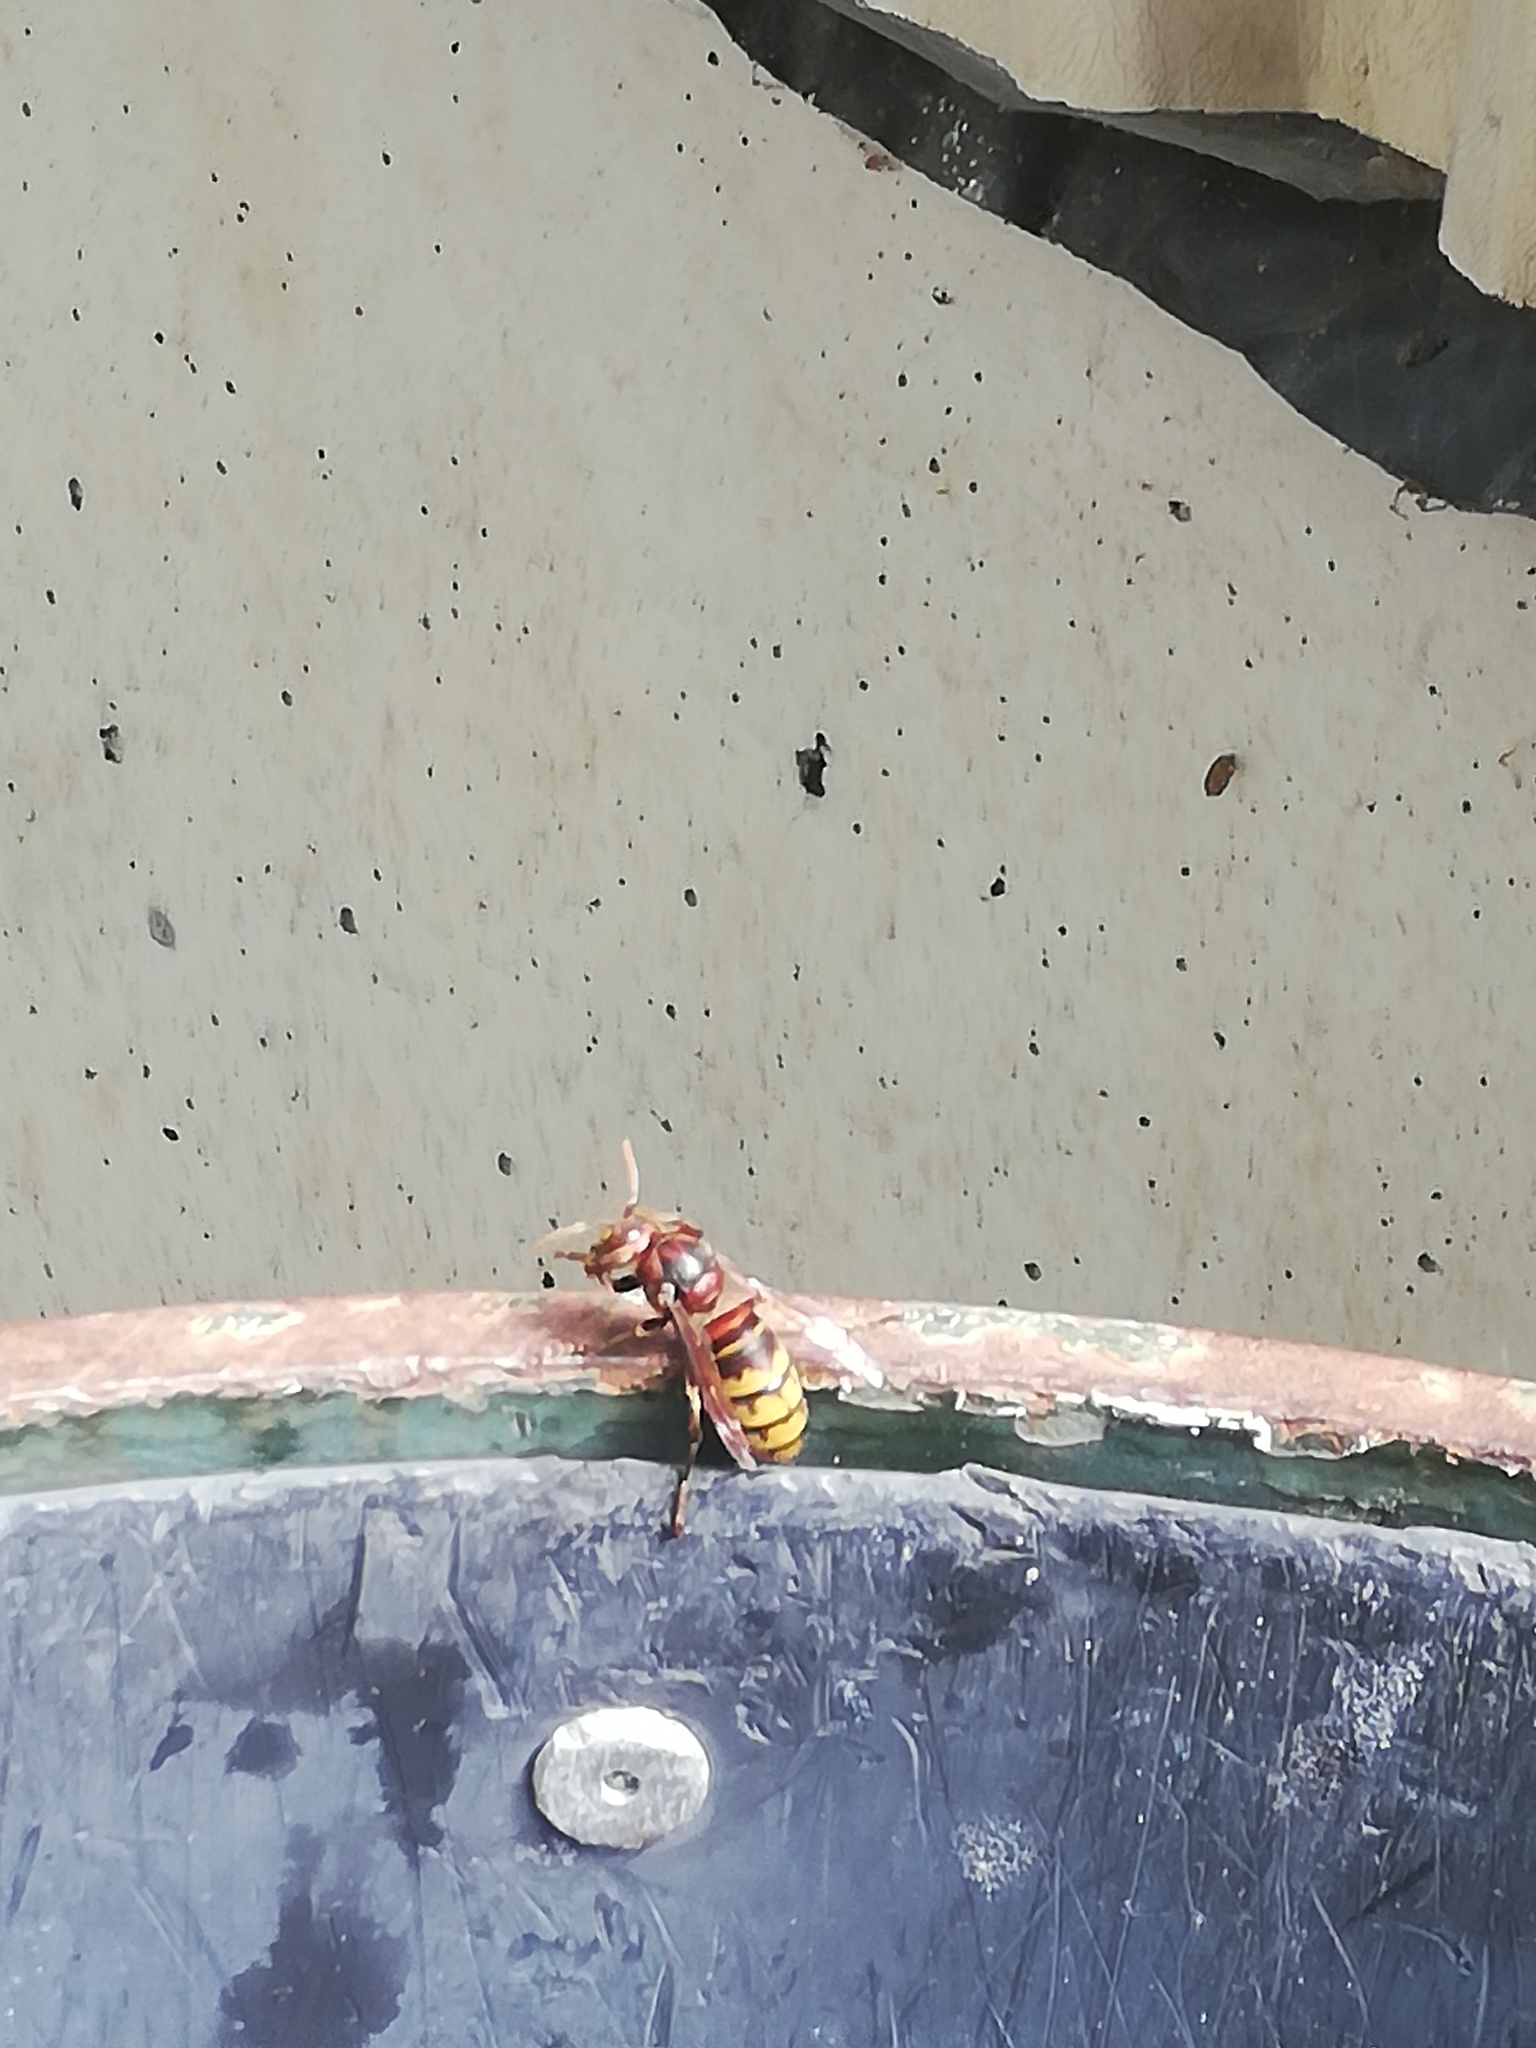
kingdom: Animalia
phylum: Arthropoda
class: Insecta
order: Hymenoptera
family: Vespidae
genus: Vespa
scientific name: Vespa crabro
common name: Hornet
